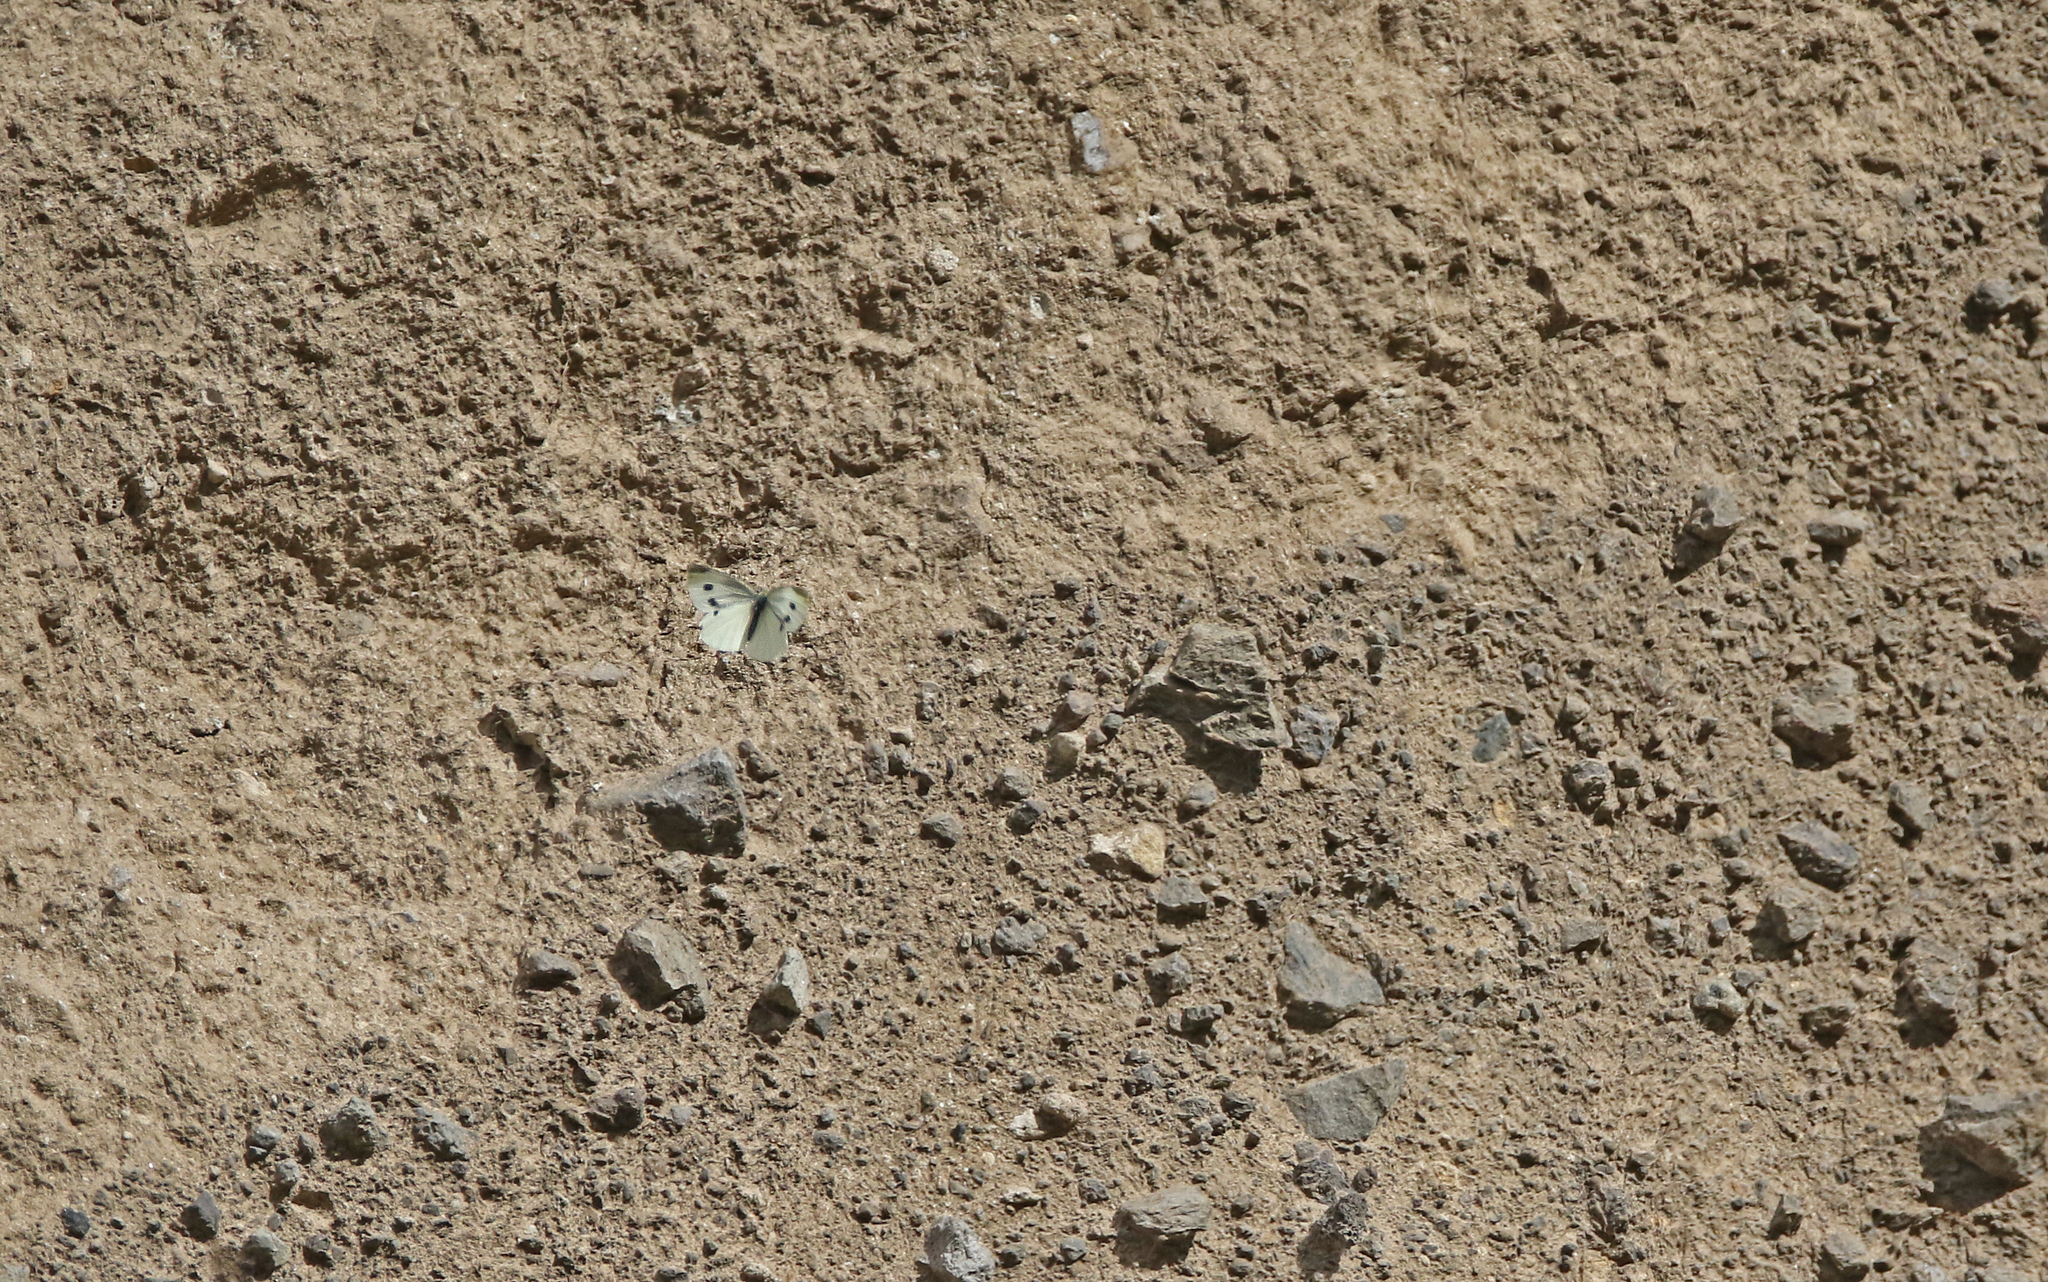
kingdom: Animalia
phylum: Arthropoda
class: Insecta
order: Lepidoptera
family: Pieridae
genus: Pieris
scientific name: Pieris rapae
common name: Small white
